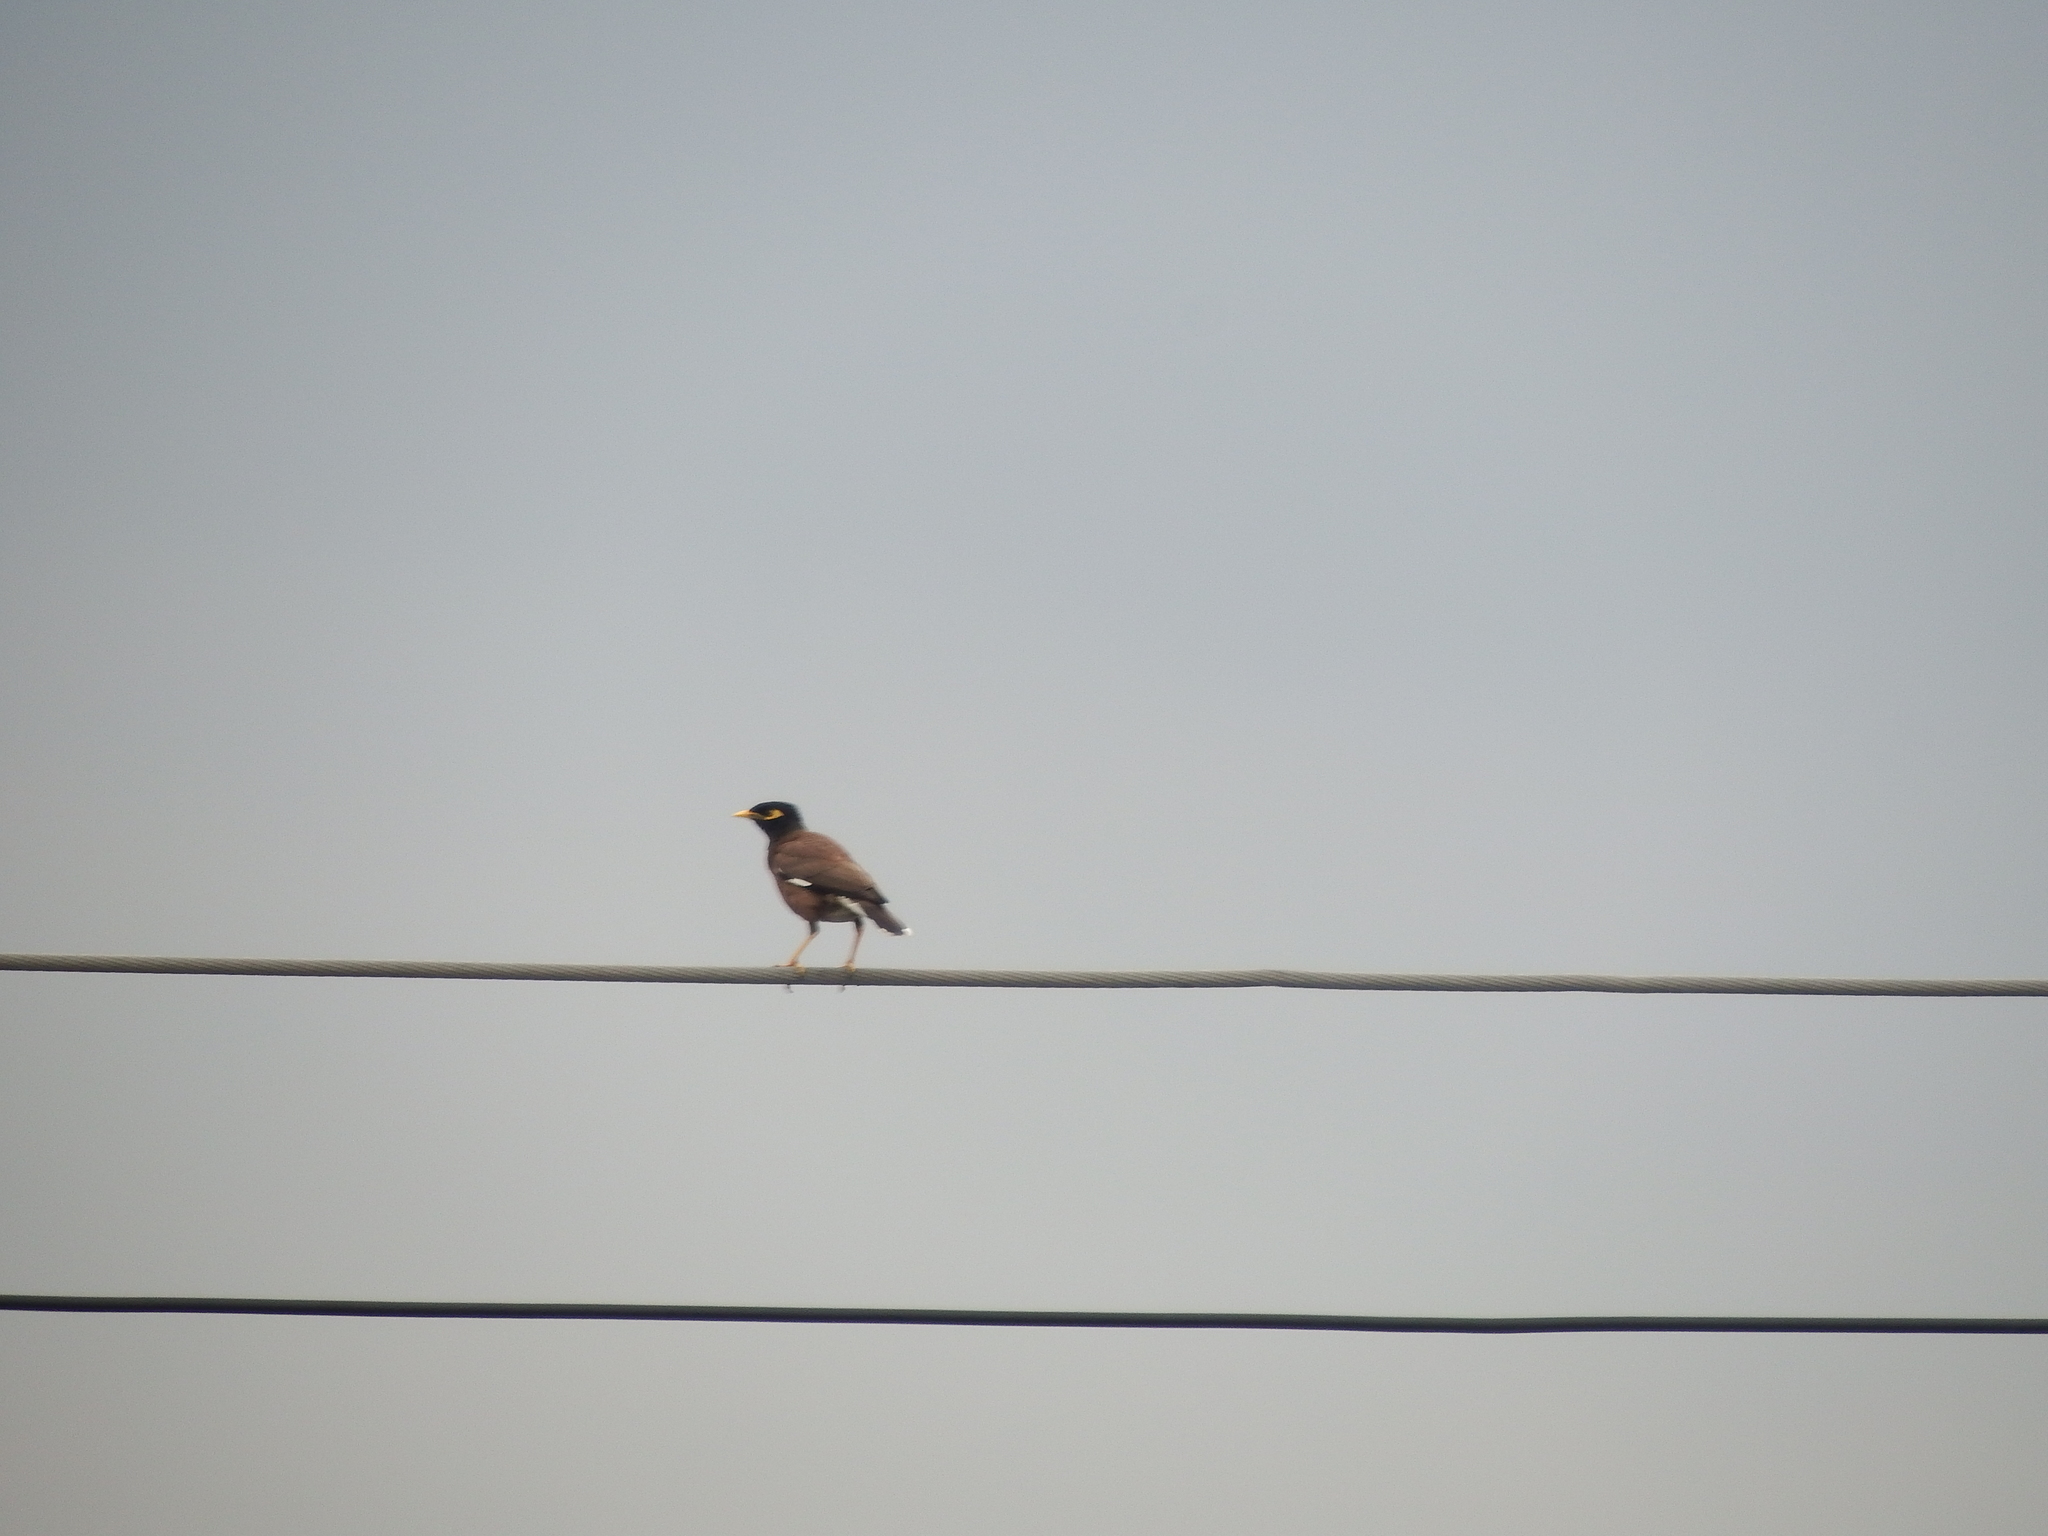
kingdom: Animalia
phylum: Chordata
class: Aves
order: Passeriformes
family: Sturnidae
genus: Acridotheres
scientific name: Acridotheres tristis
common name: Common myna
